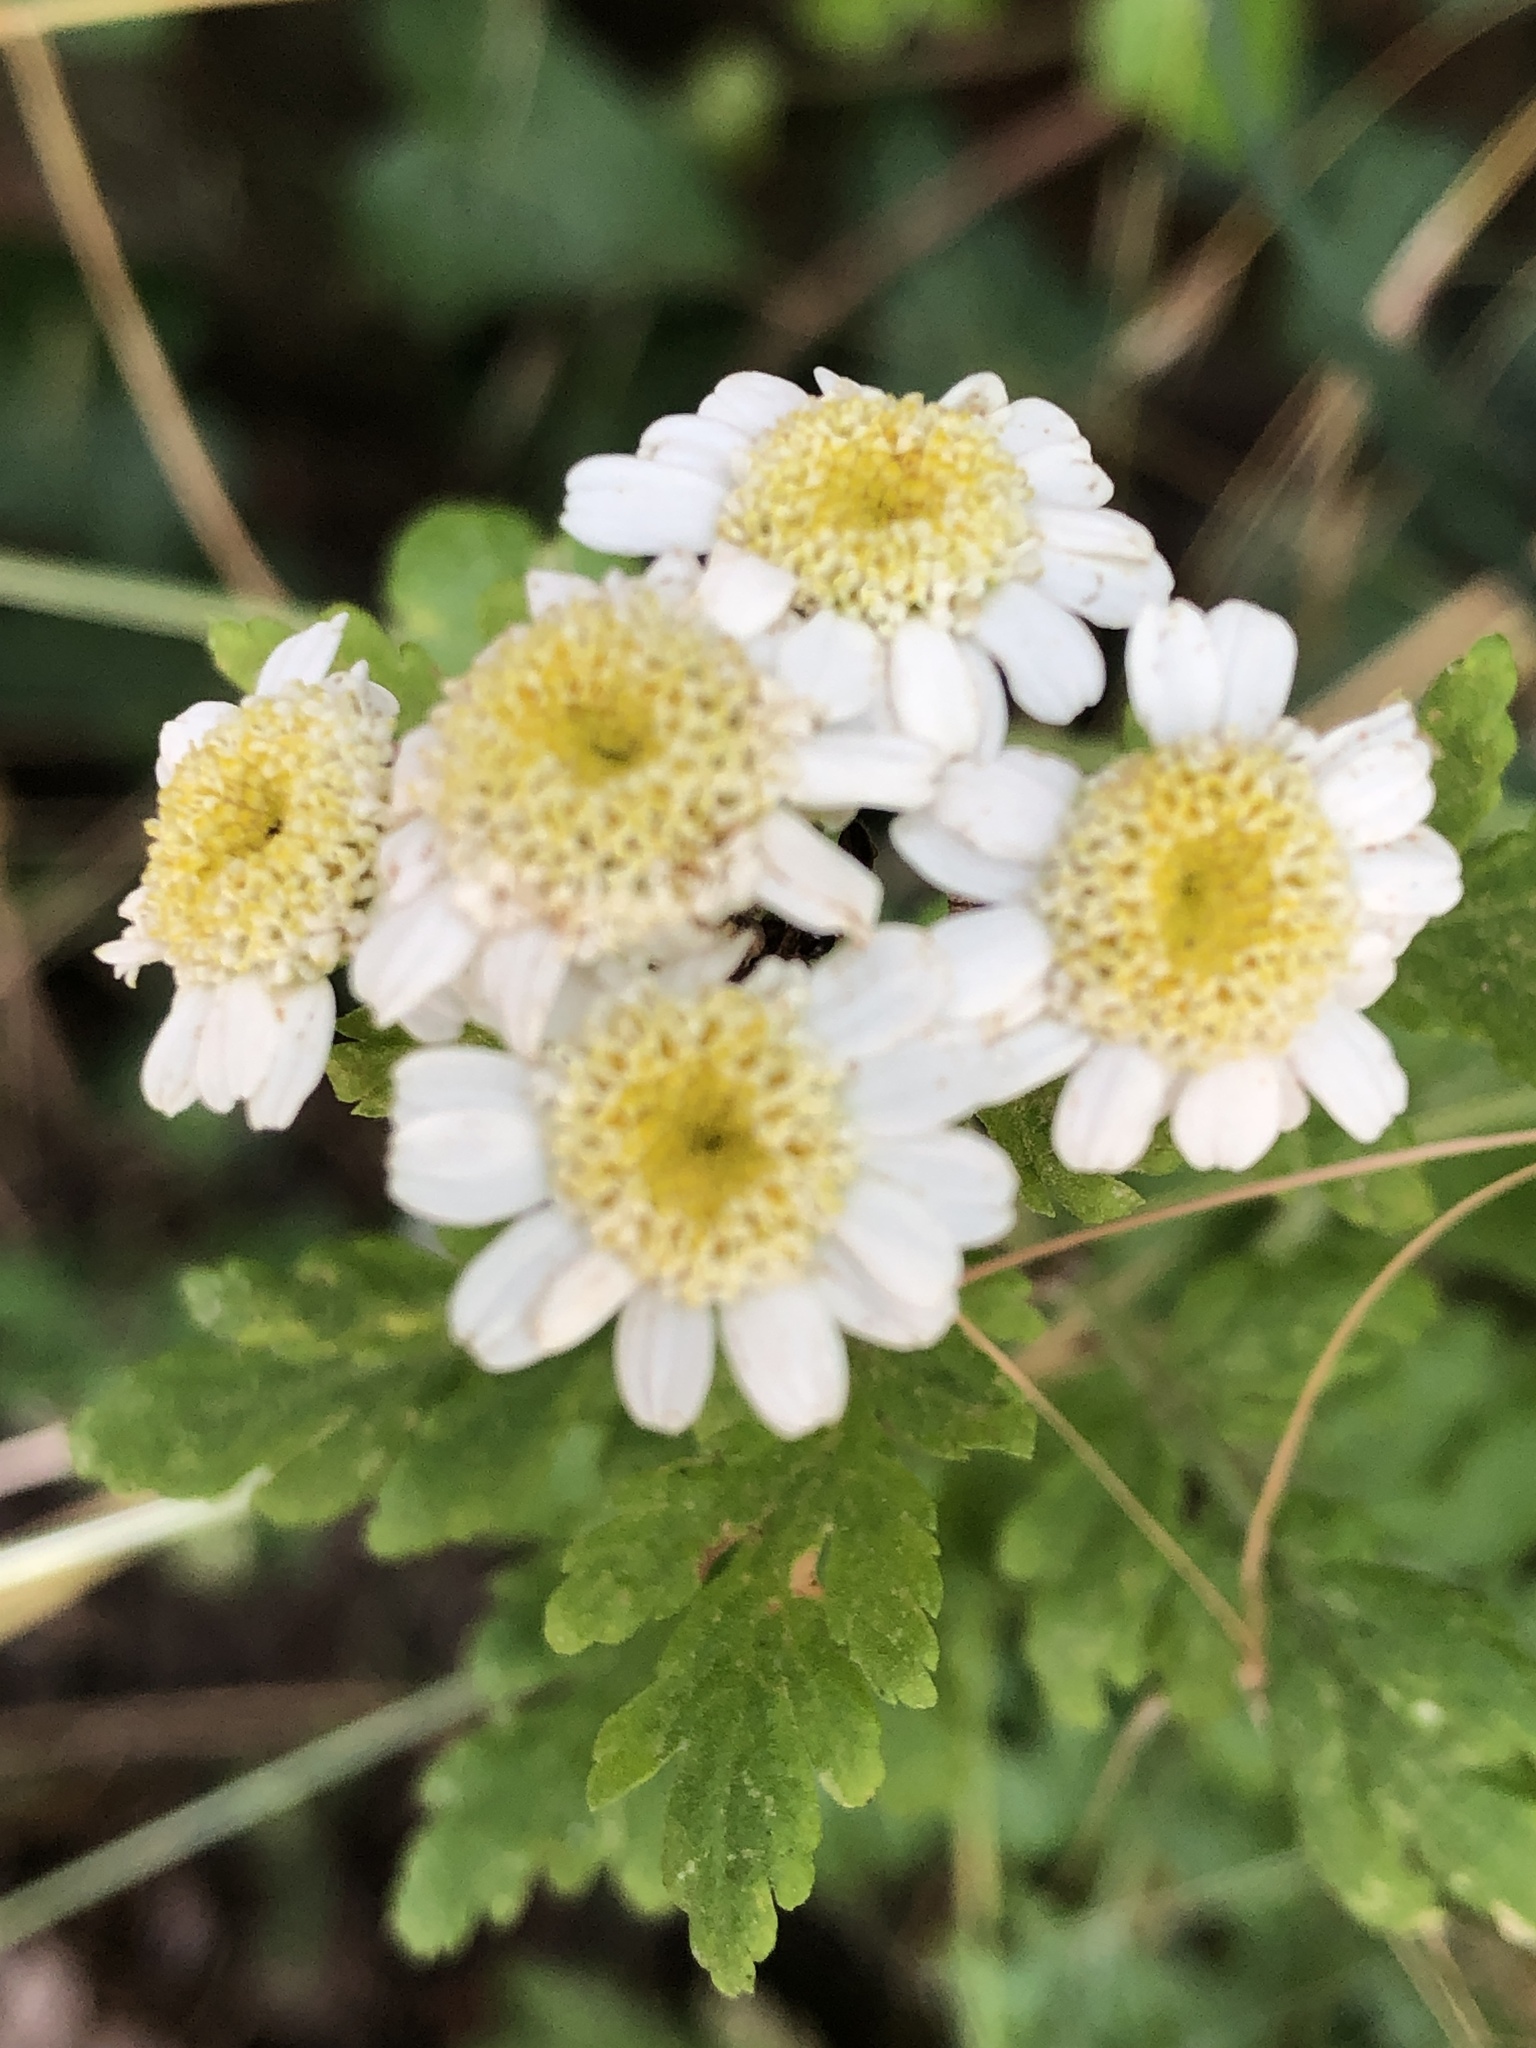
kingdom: Plantae
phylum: Tracheophyta
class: Magnoliopsida
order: Asterales
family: Asteraceae
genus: Tanacetum
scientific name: Tanacetum parthenium
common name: Feverfew
